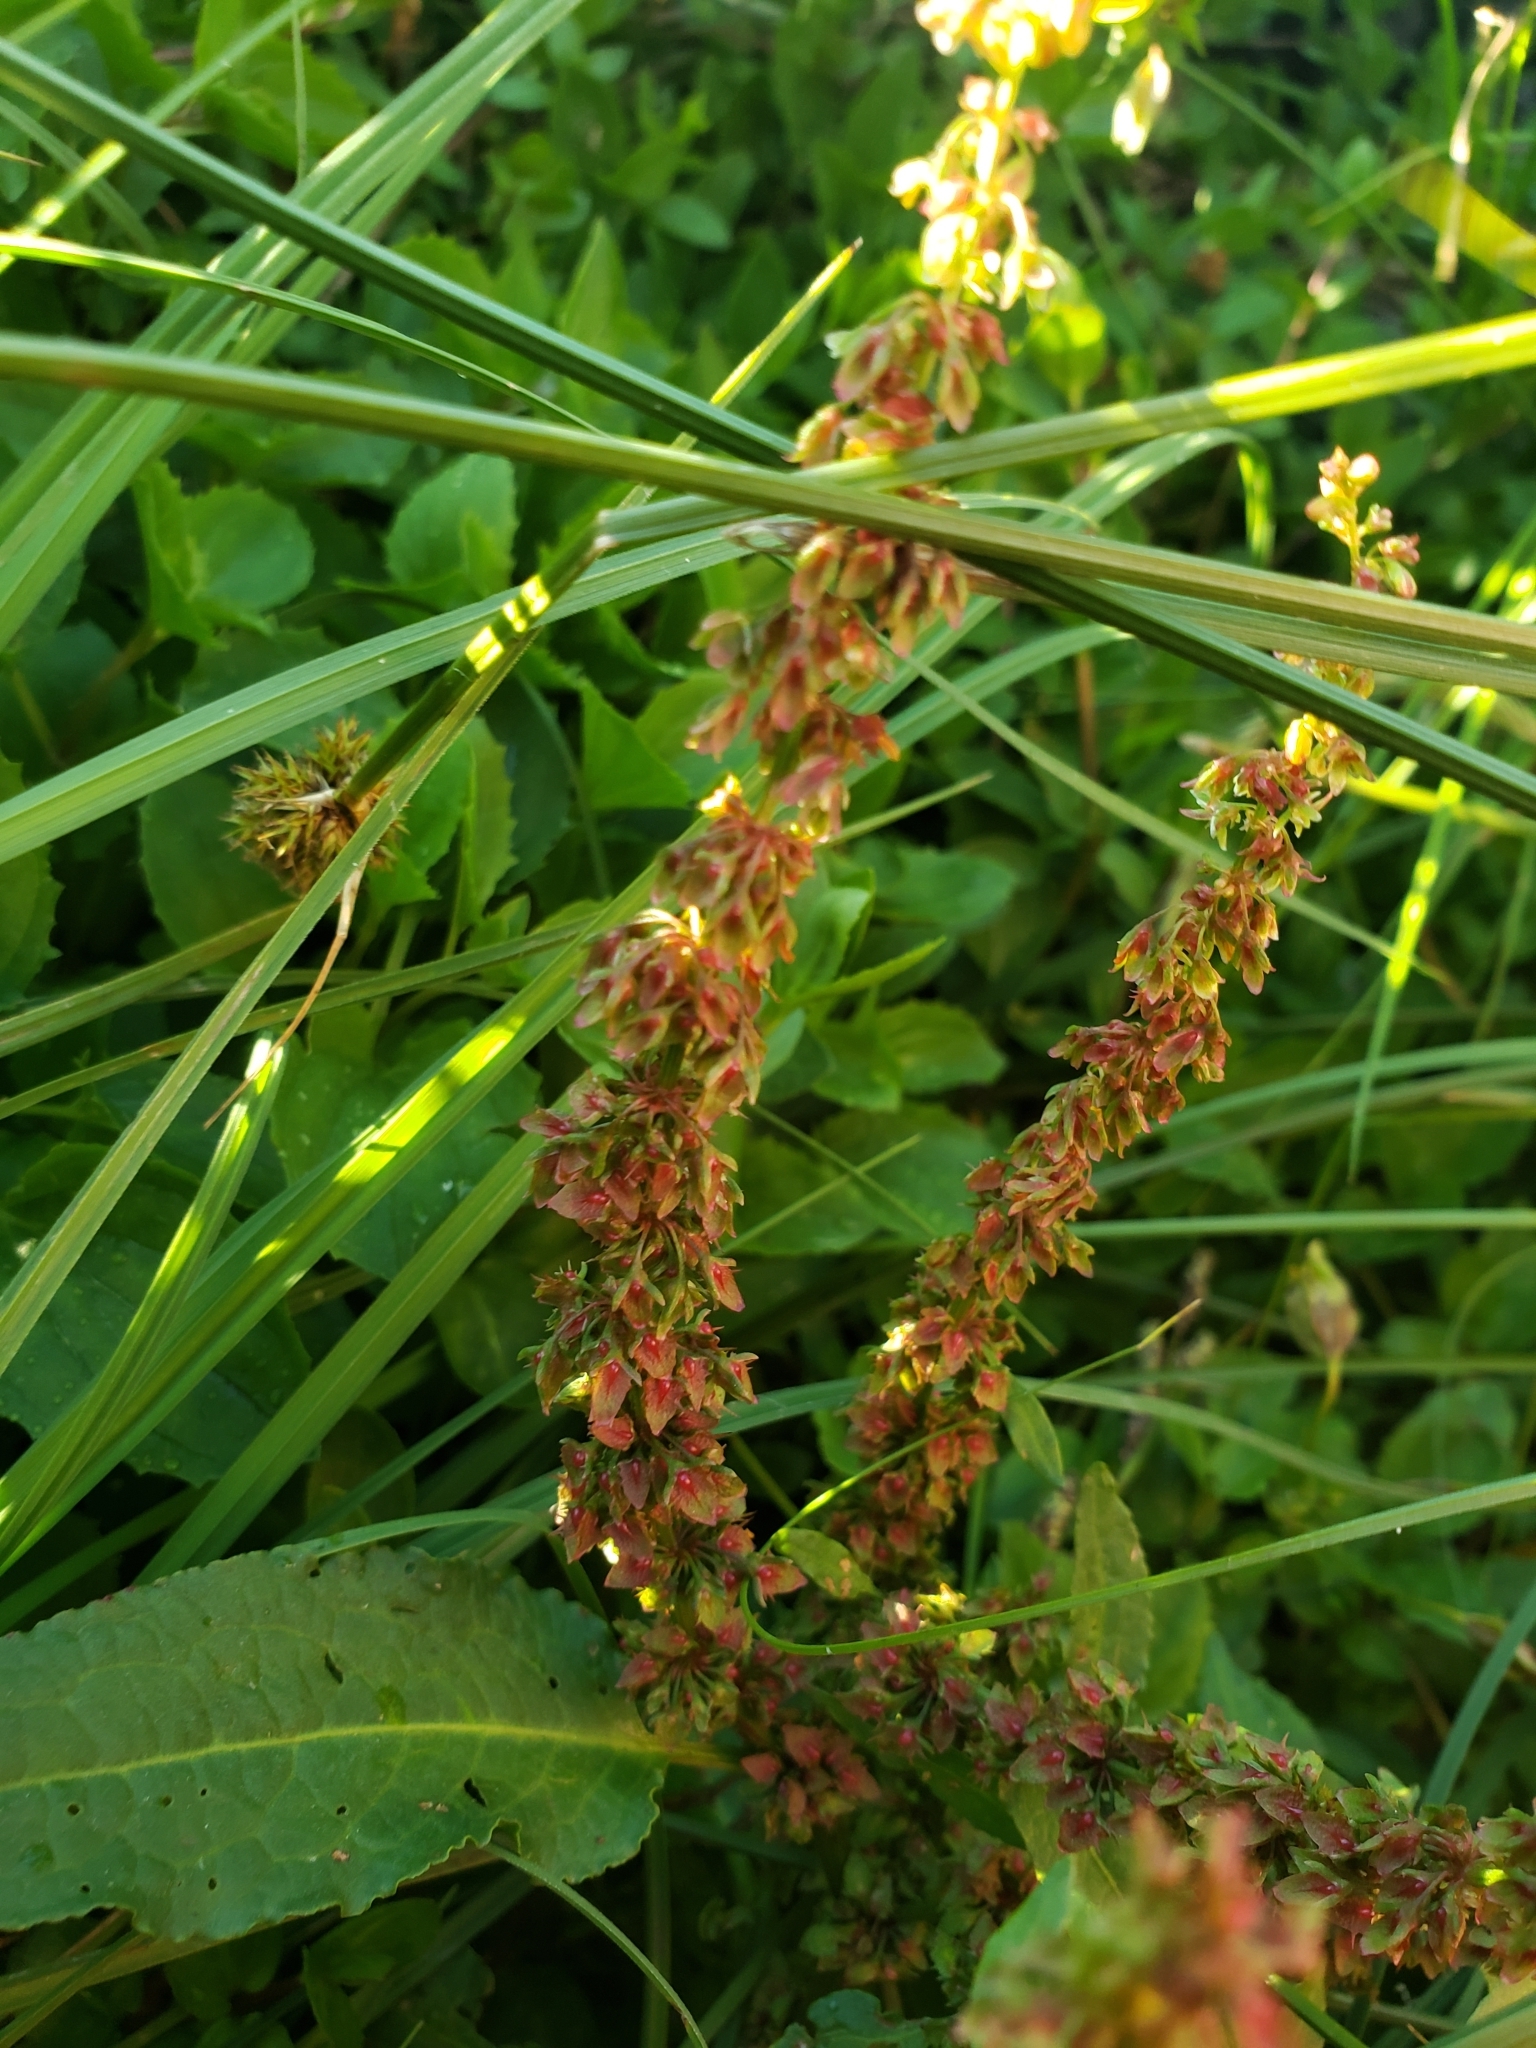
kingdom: Plantae
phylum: Tracheophyta
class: Magnoliopsida
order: Caryophyllales
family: Polygonaceae
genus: Rumex
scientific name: Rumex obtusifolius
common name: Bitter dock
